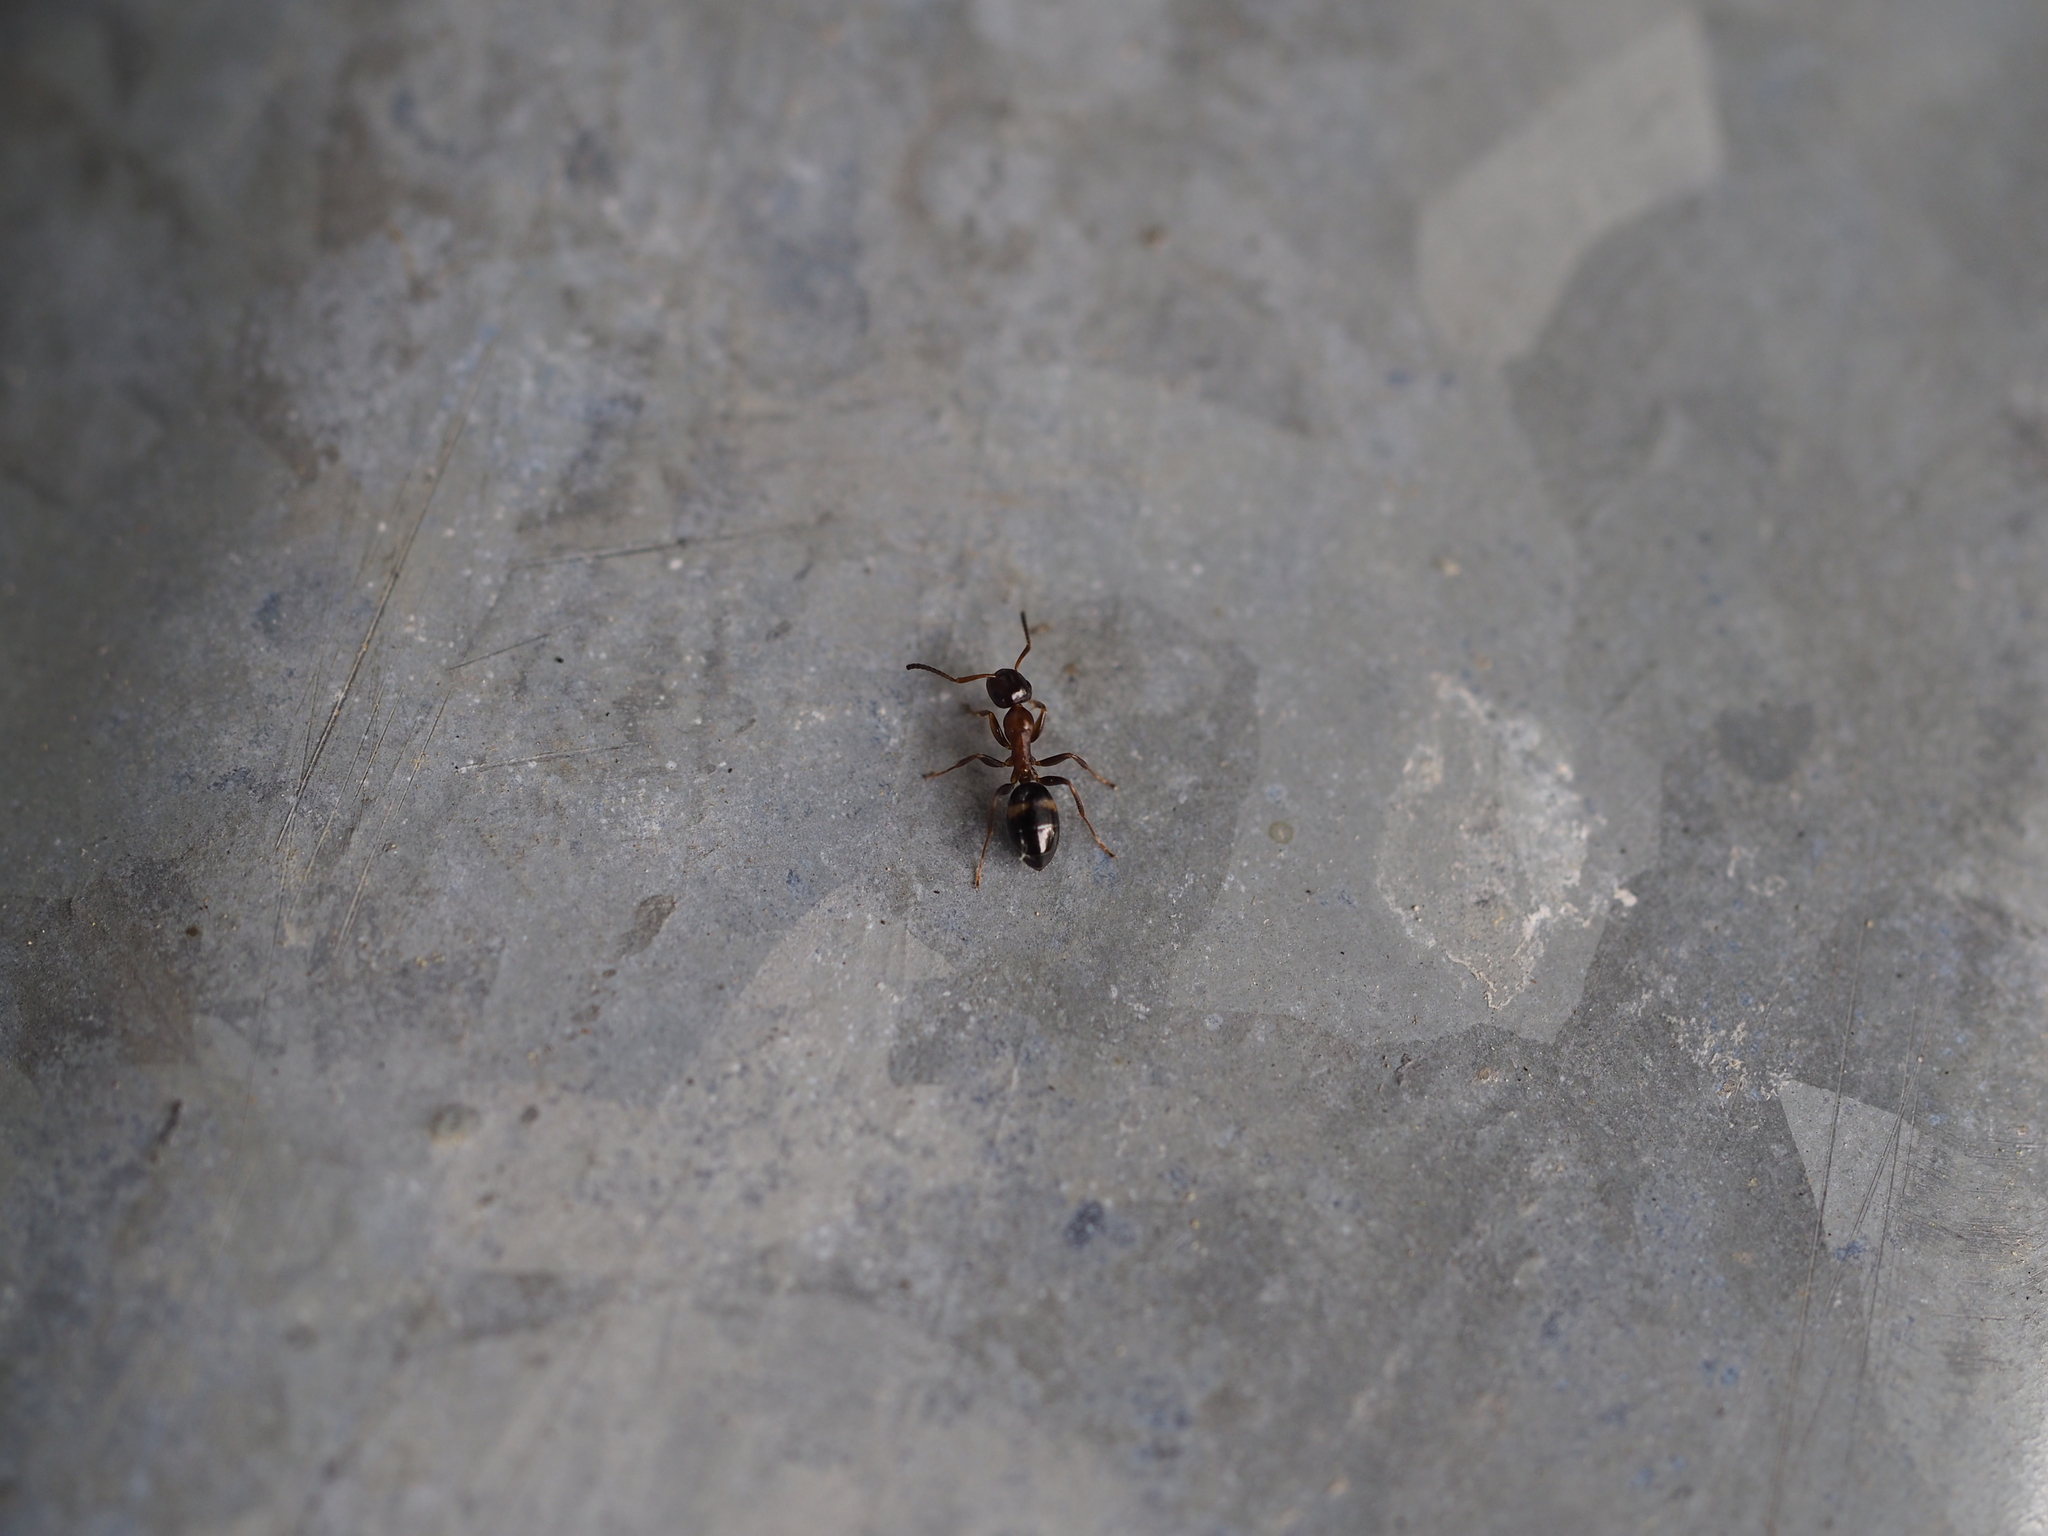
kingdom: Animalia
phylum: Arthropoda
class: Insecta
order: Hymenoptera
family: Formicidae
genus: Camponotus
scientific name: Camponotus truncatus
